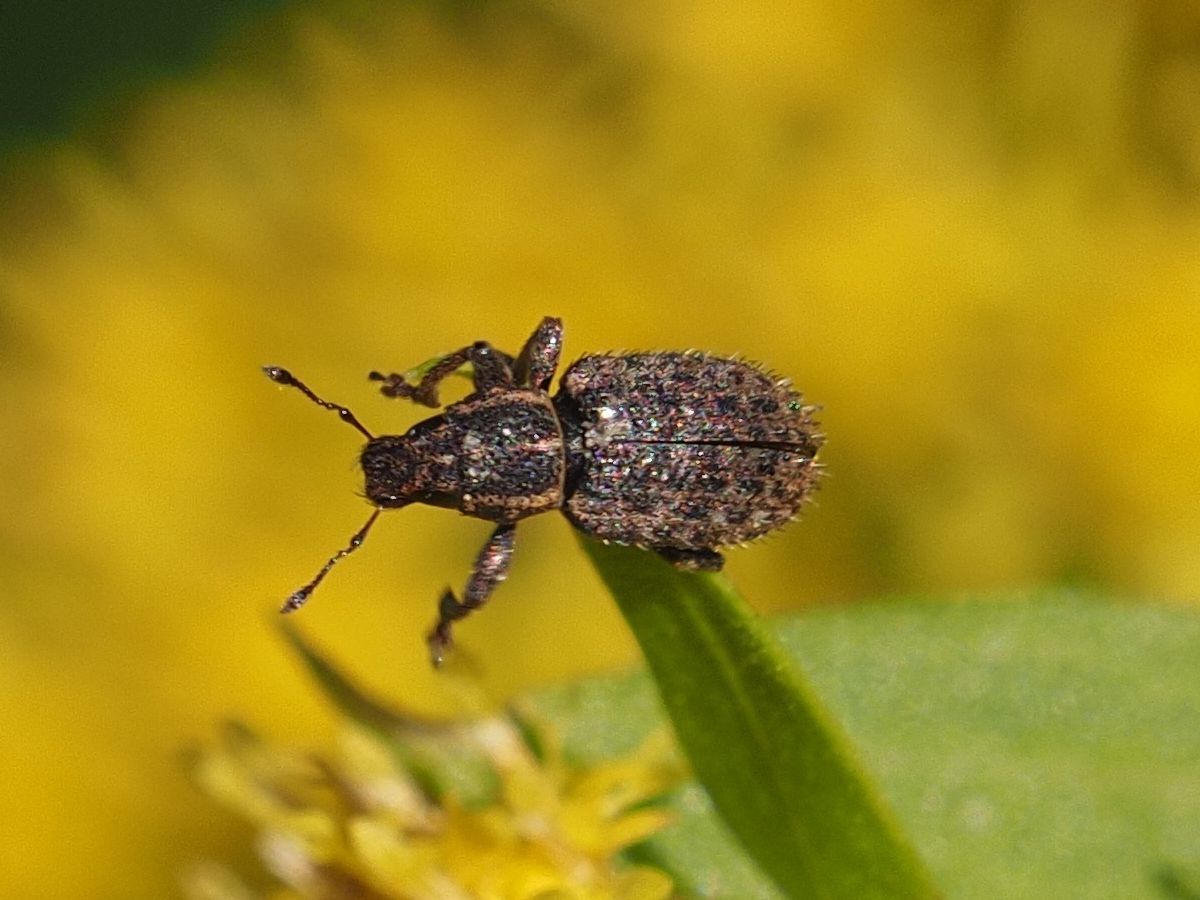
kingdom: Animalia
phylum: Arthropoda
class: Insecta
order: Coleoptera
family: Curculionidae
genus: Sitona
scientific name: Sitona hispidulus
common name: Clover weevil
